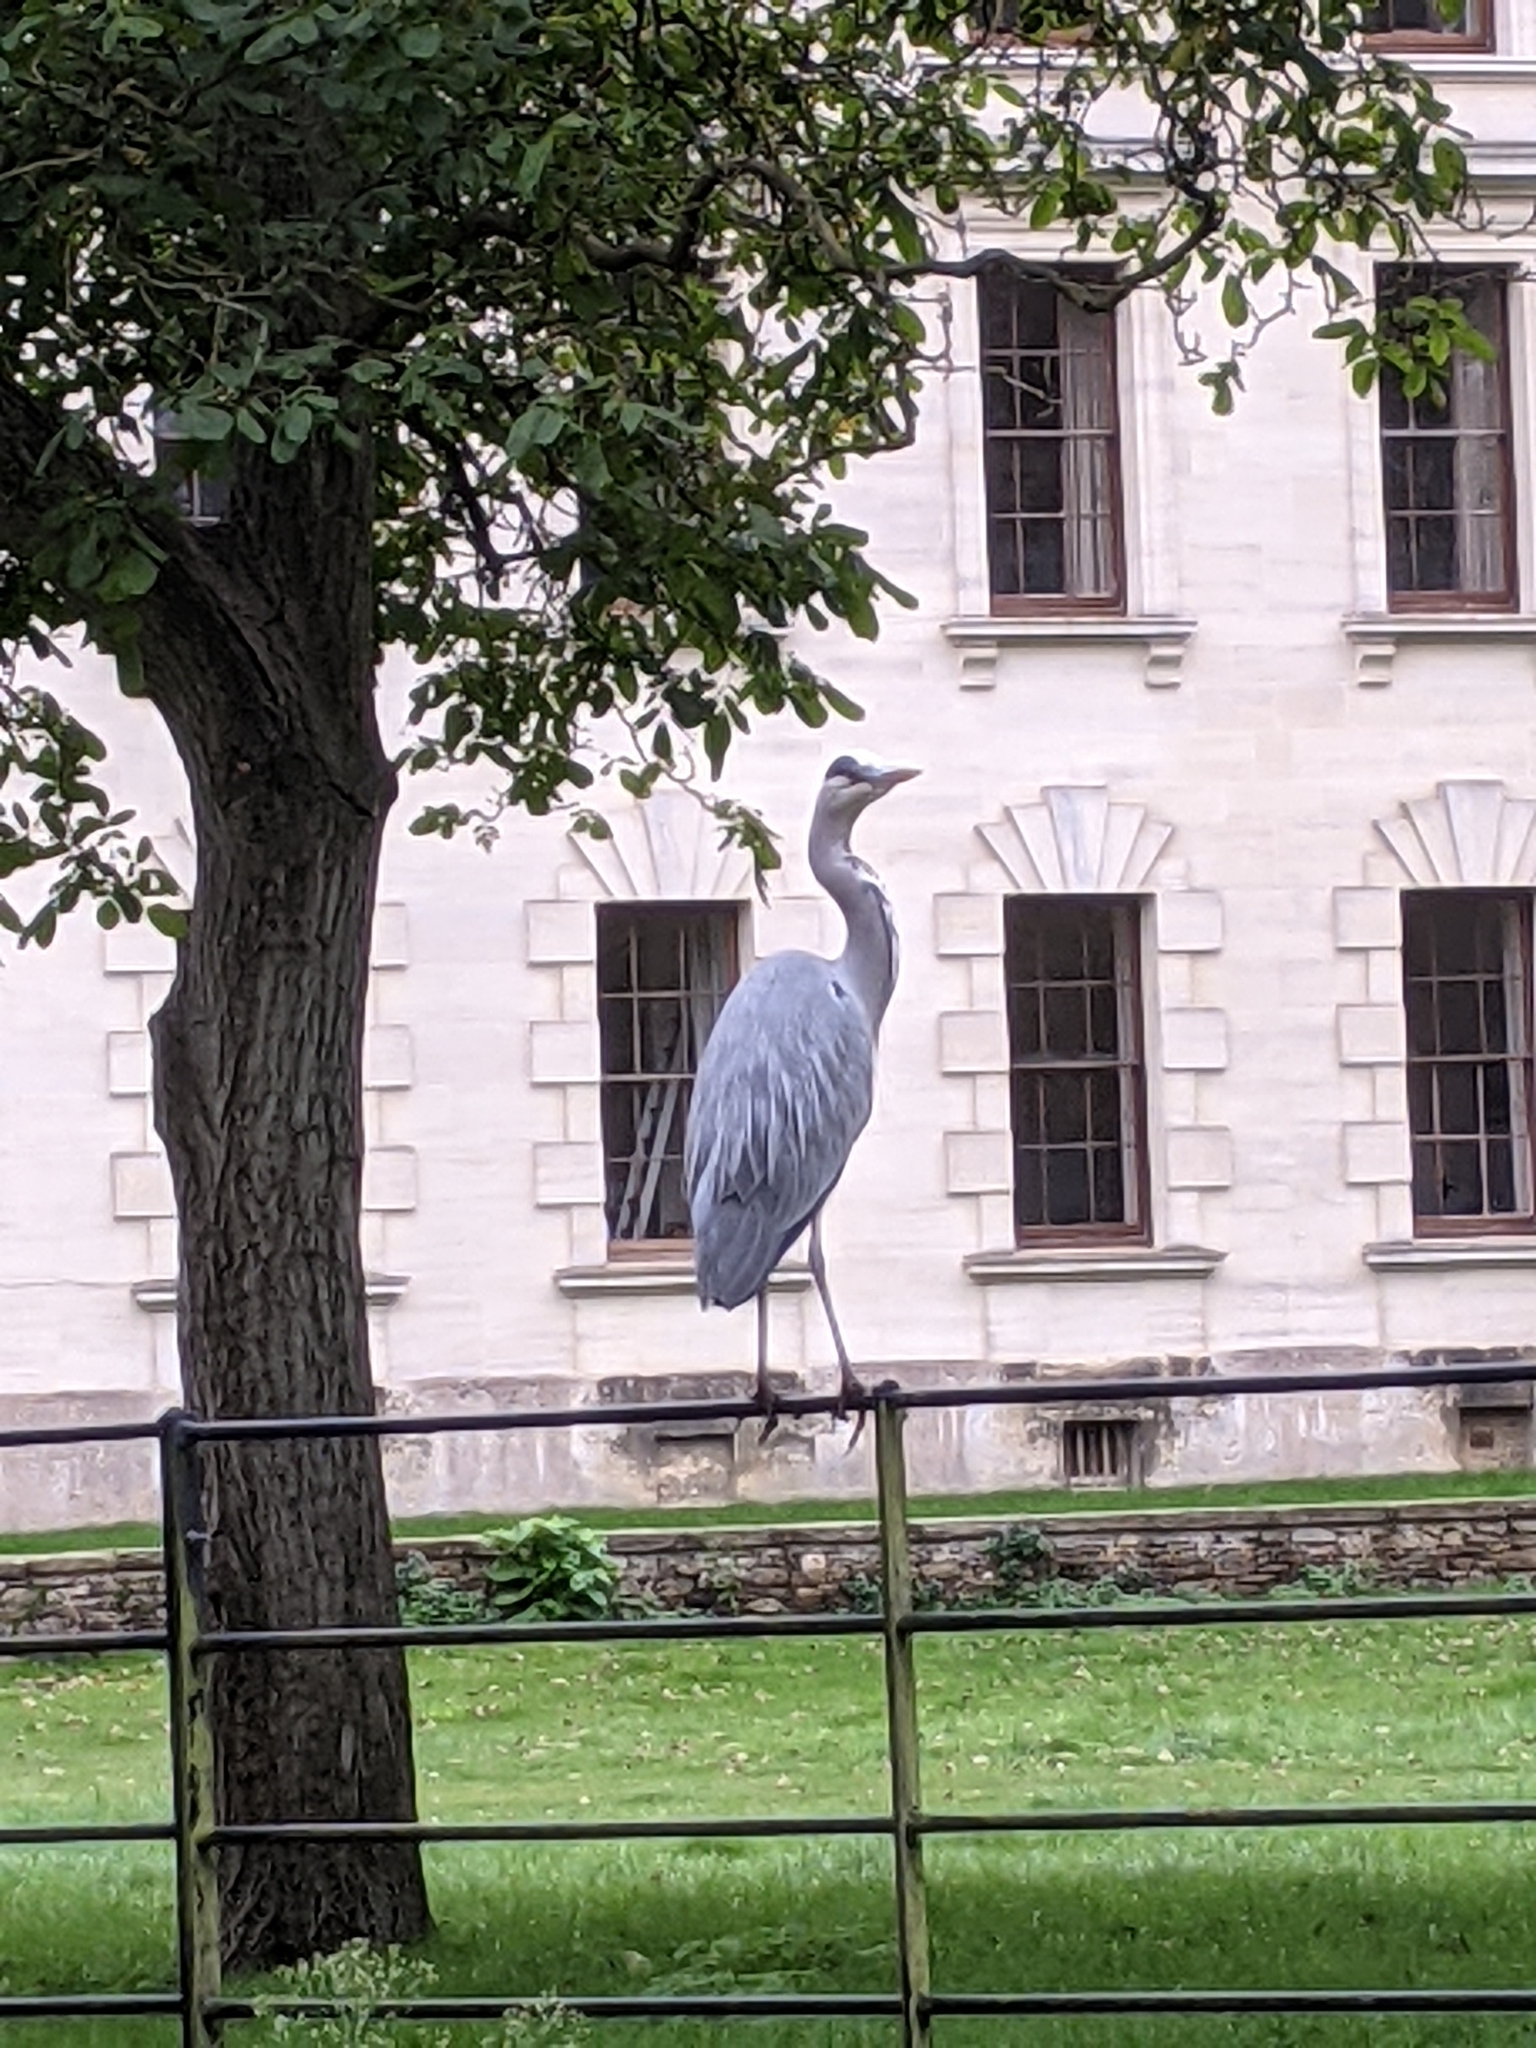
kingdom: Animalia
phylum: Chordata
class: Aves
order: Pelecaniformes
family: Ardeidae
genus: Ardea
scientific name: Ardea cinerea
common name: Grey heron
